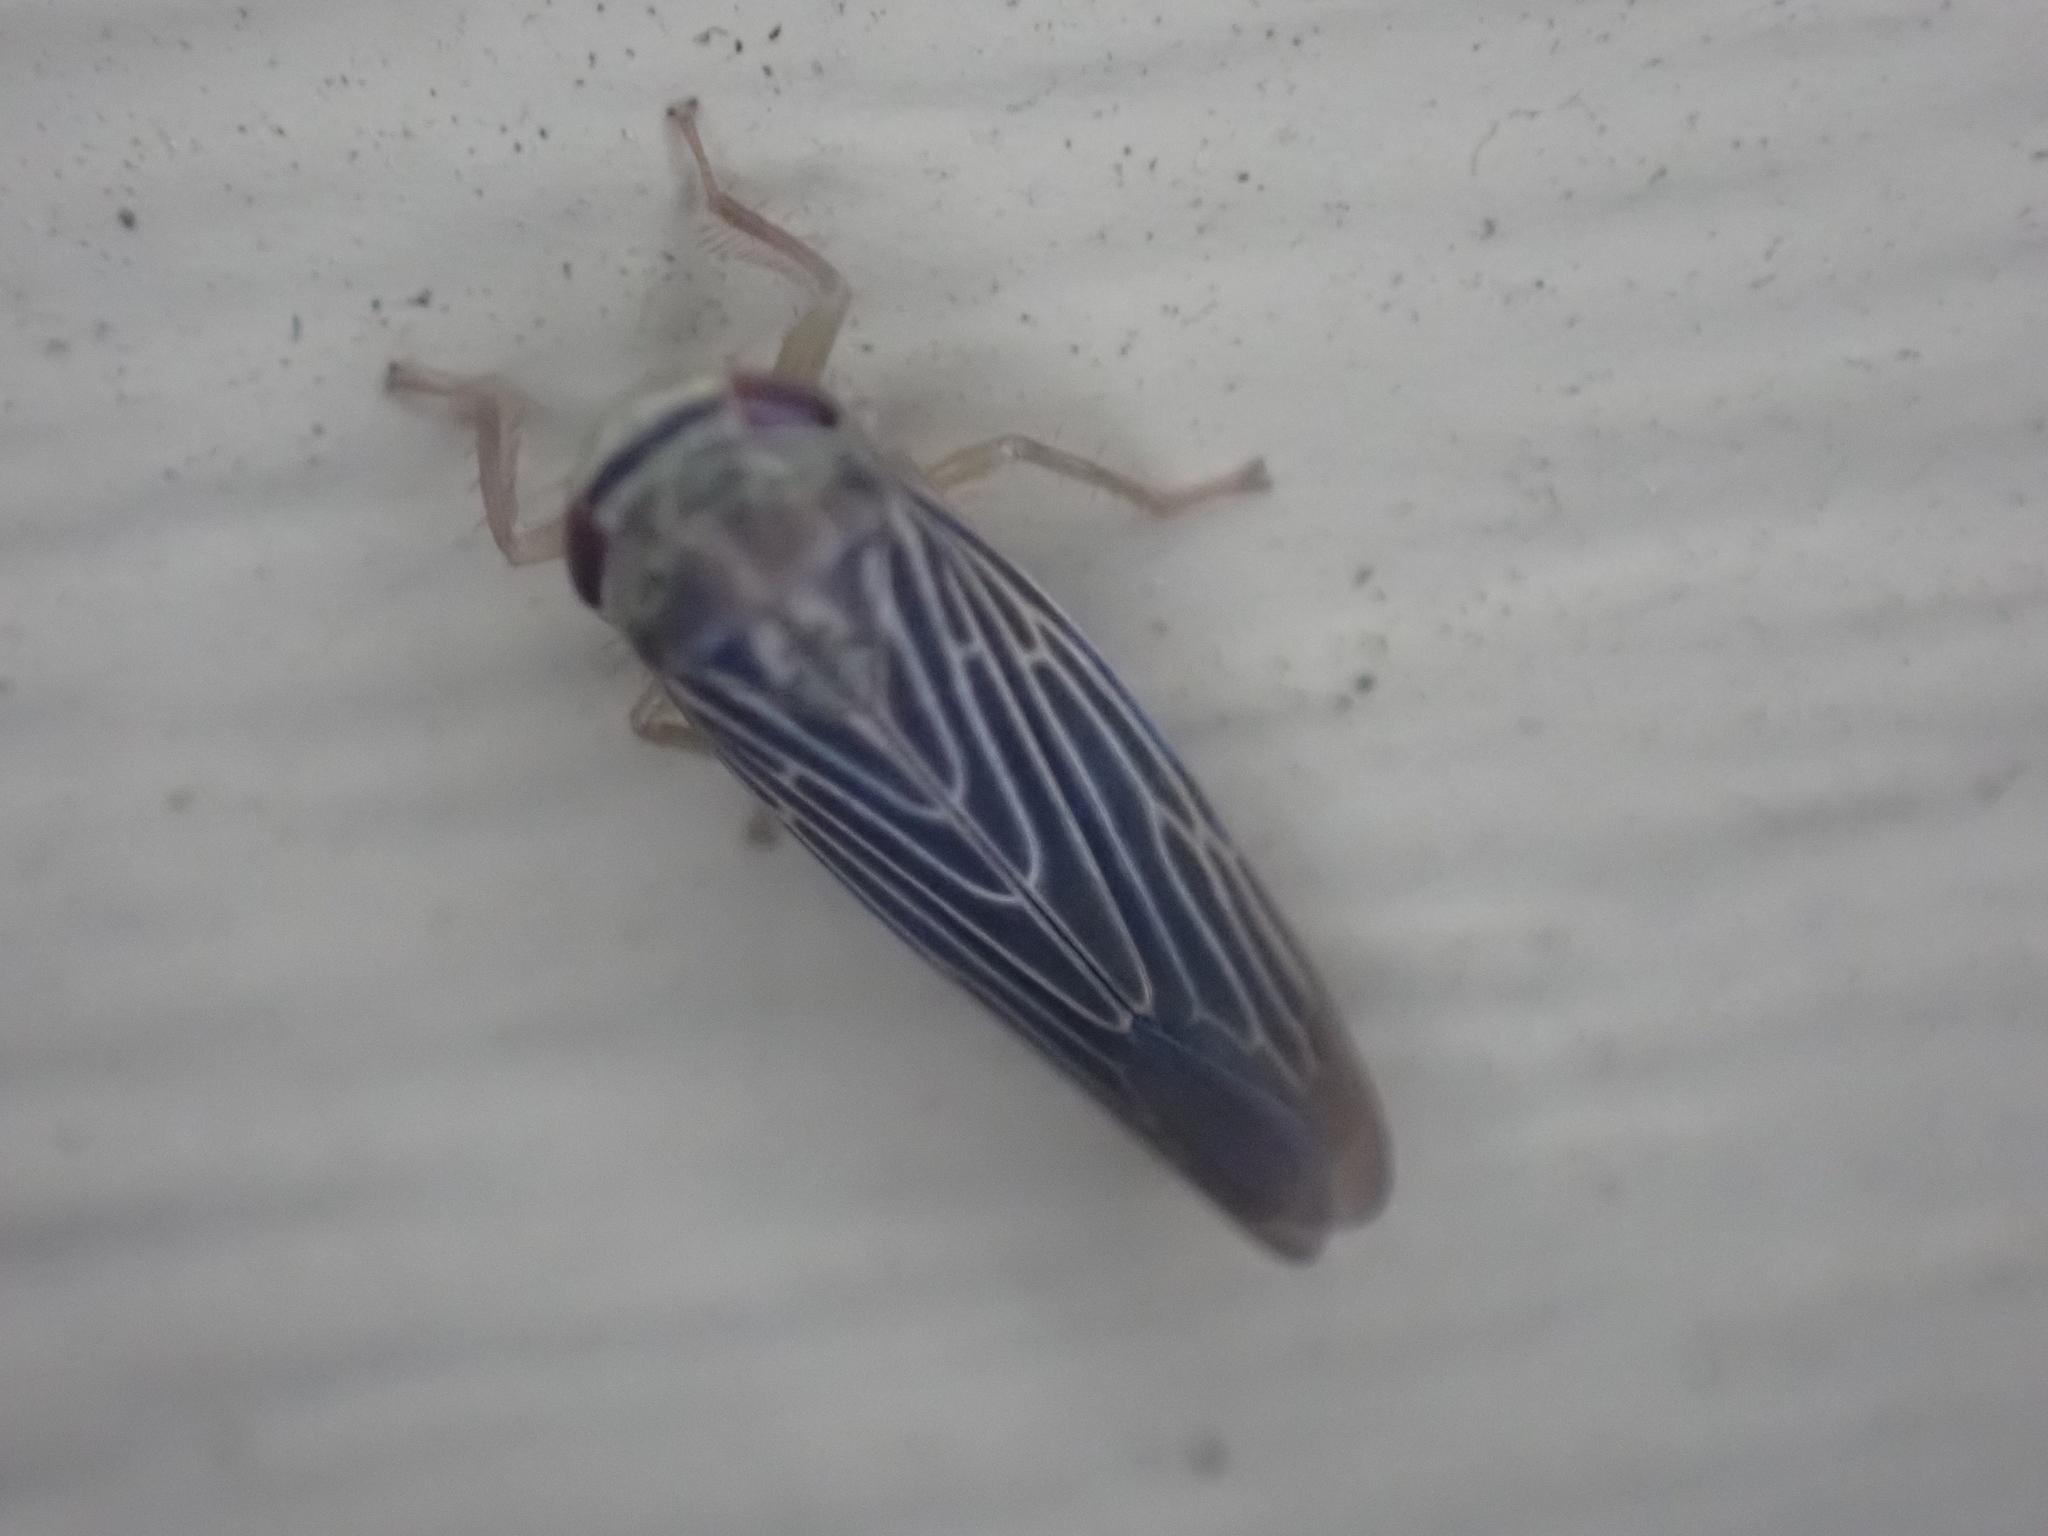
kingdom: Animalia
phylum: Arthropoda
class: Insecta
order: Hemiptera
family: Cicadellidae
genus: Chlorotettix
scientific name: Chlorotettix necopinus
